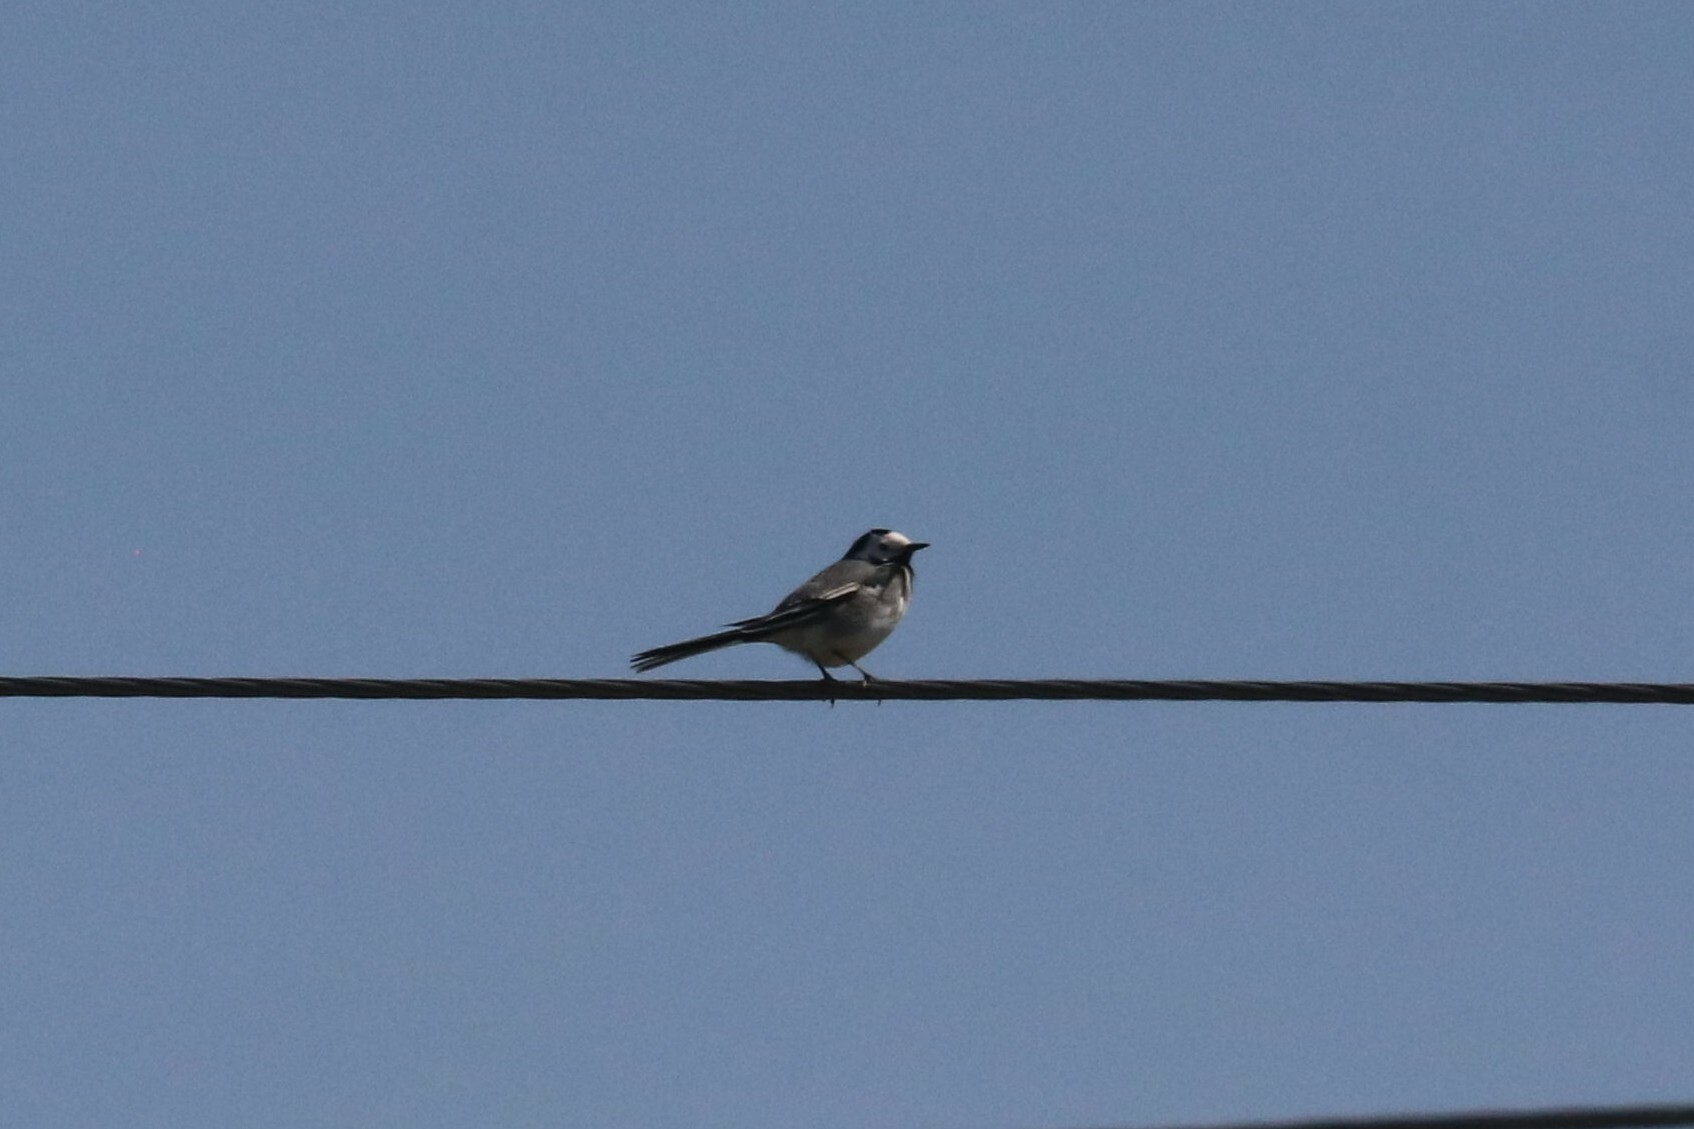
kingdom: Animalia
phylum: Chordata
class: Aves
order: Passeriformes
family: Motacillidae
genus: Motacilla
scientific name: Motacilla alba
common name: White wagtail
